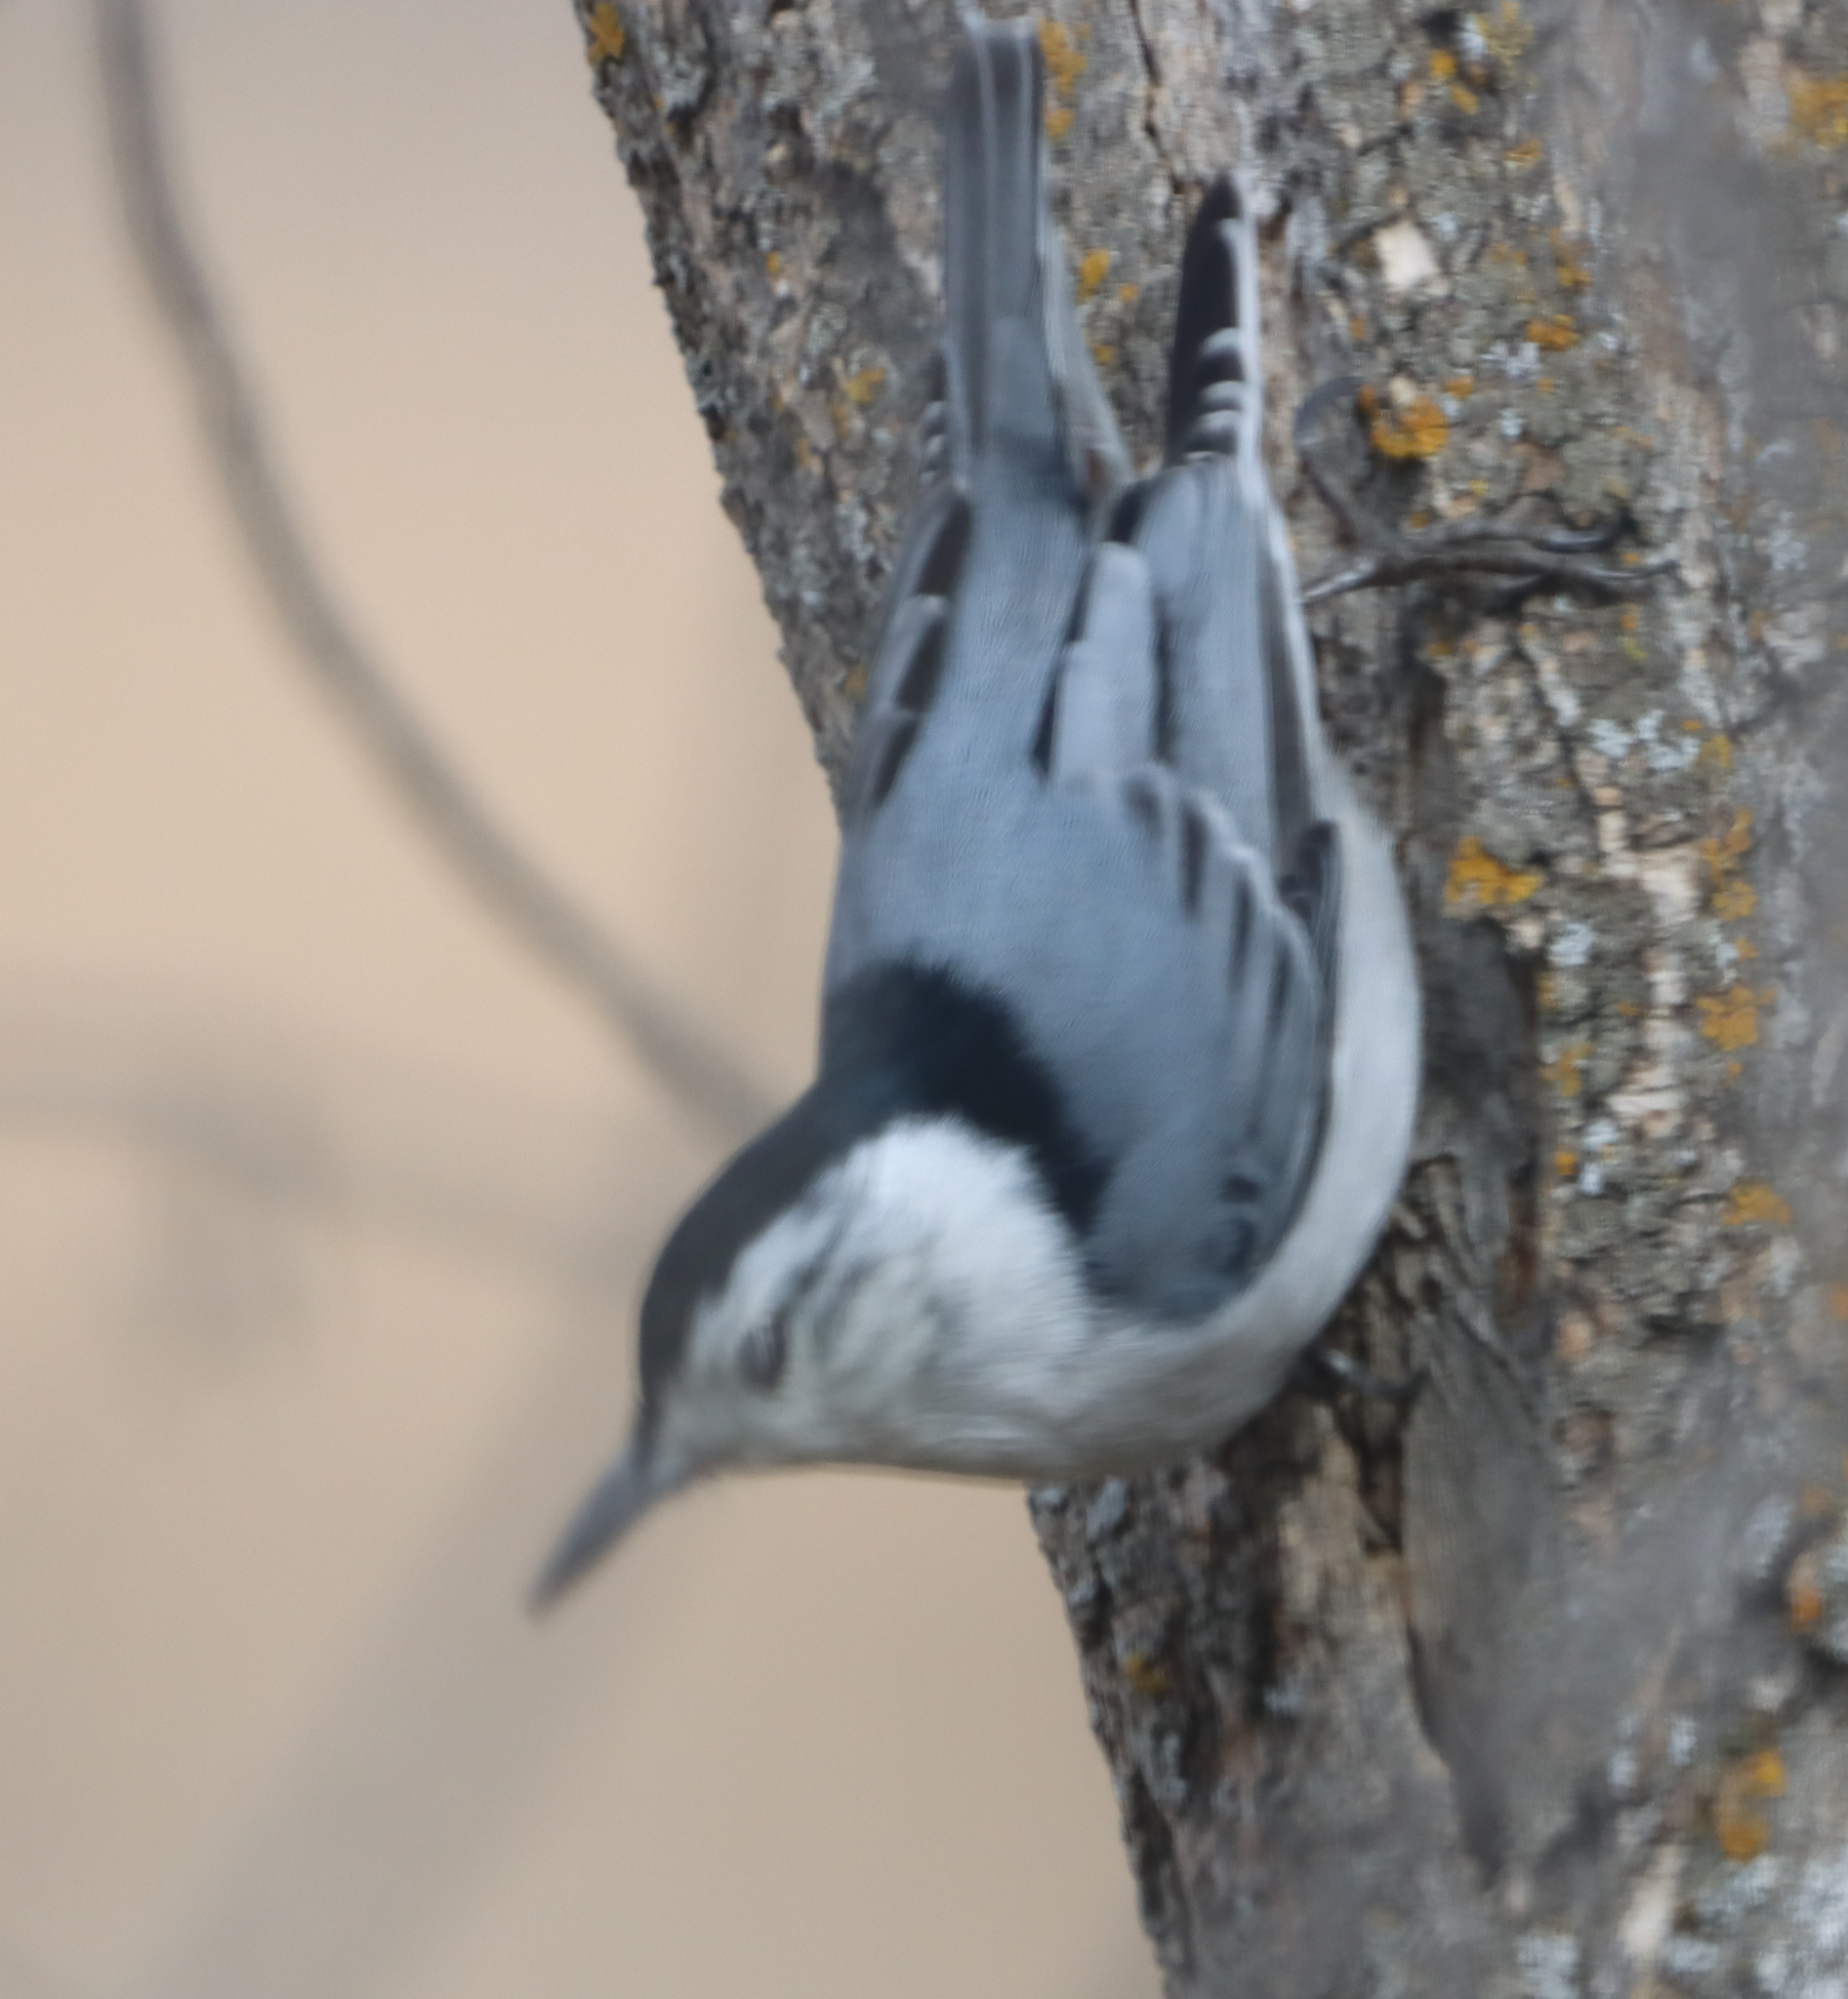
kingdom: Animalia
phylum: Chordata
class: Aves
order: Passeriformes
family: Sittidae
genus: Sitta
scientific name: Sitta carolinensis
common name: White-breasted nuthatch
